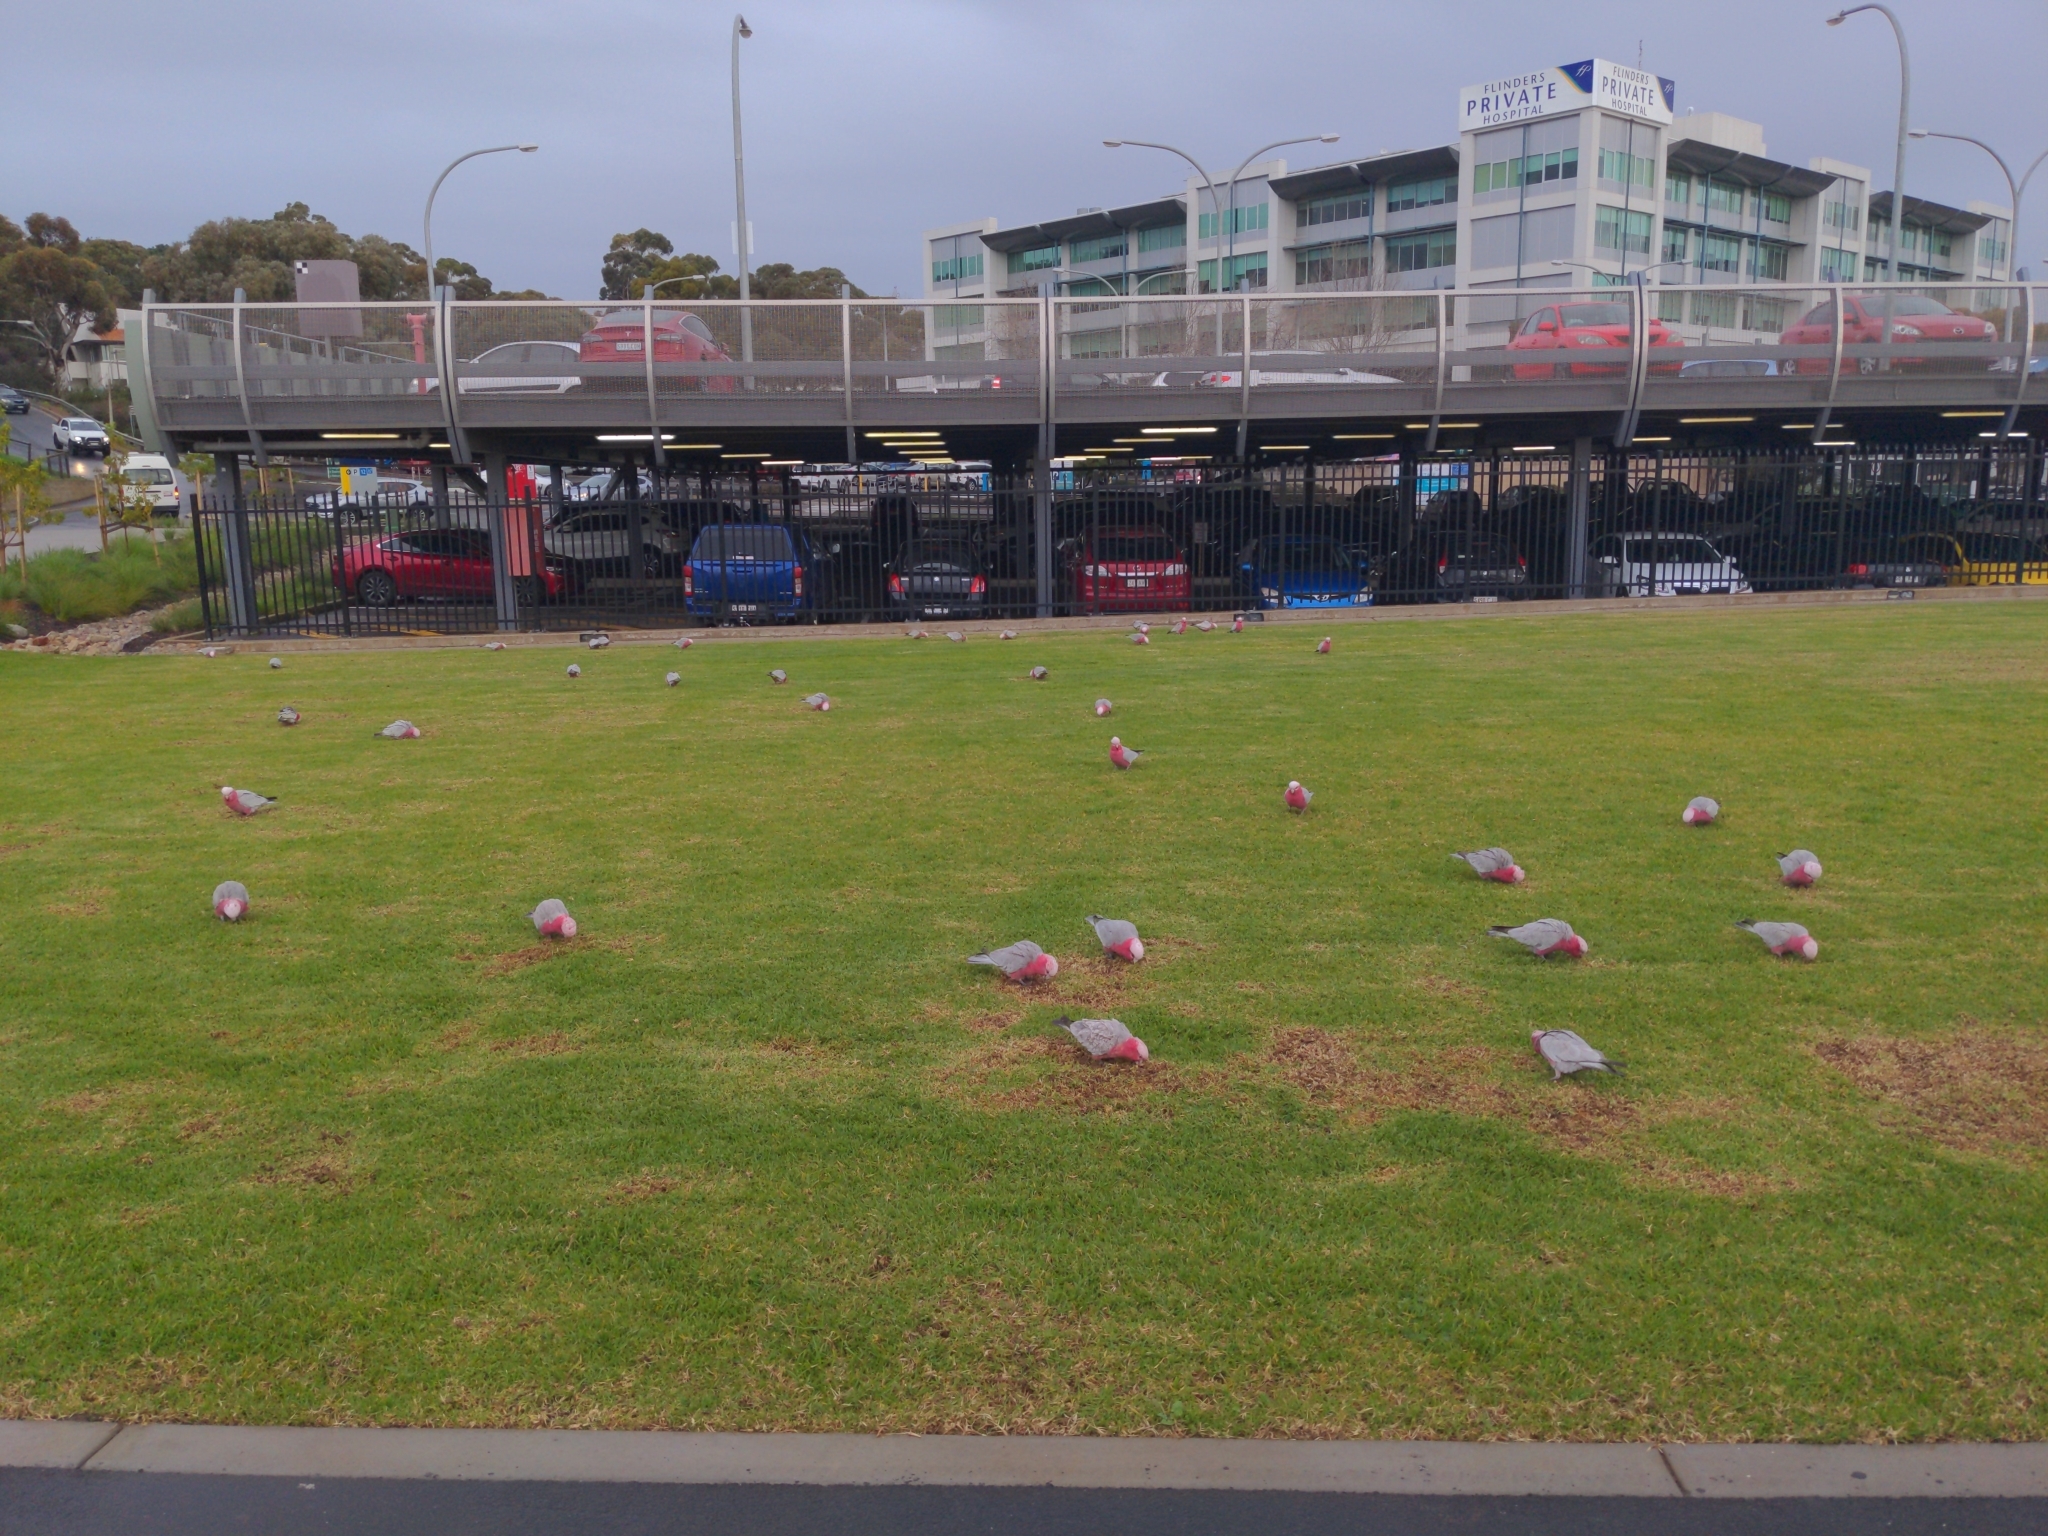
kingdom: Animalia
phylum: Chordata
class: Aves
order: Psittaciformes
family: Psittacidae
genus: Eolophus
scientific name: Eolophus roseicapilla
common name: Galah
